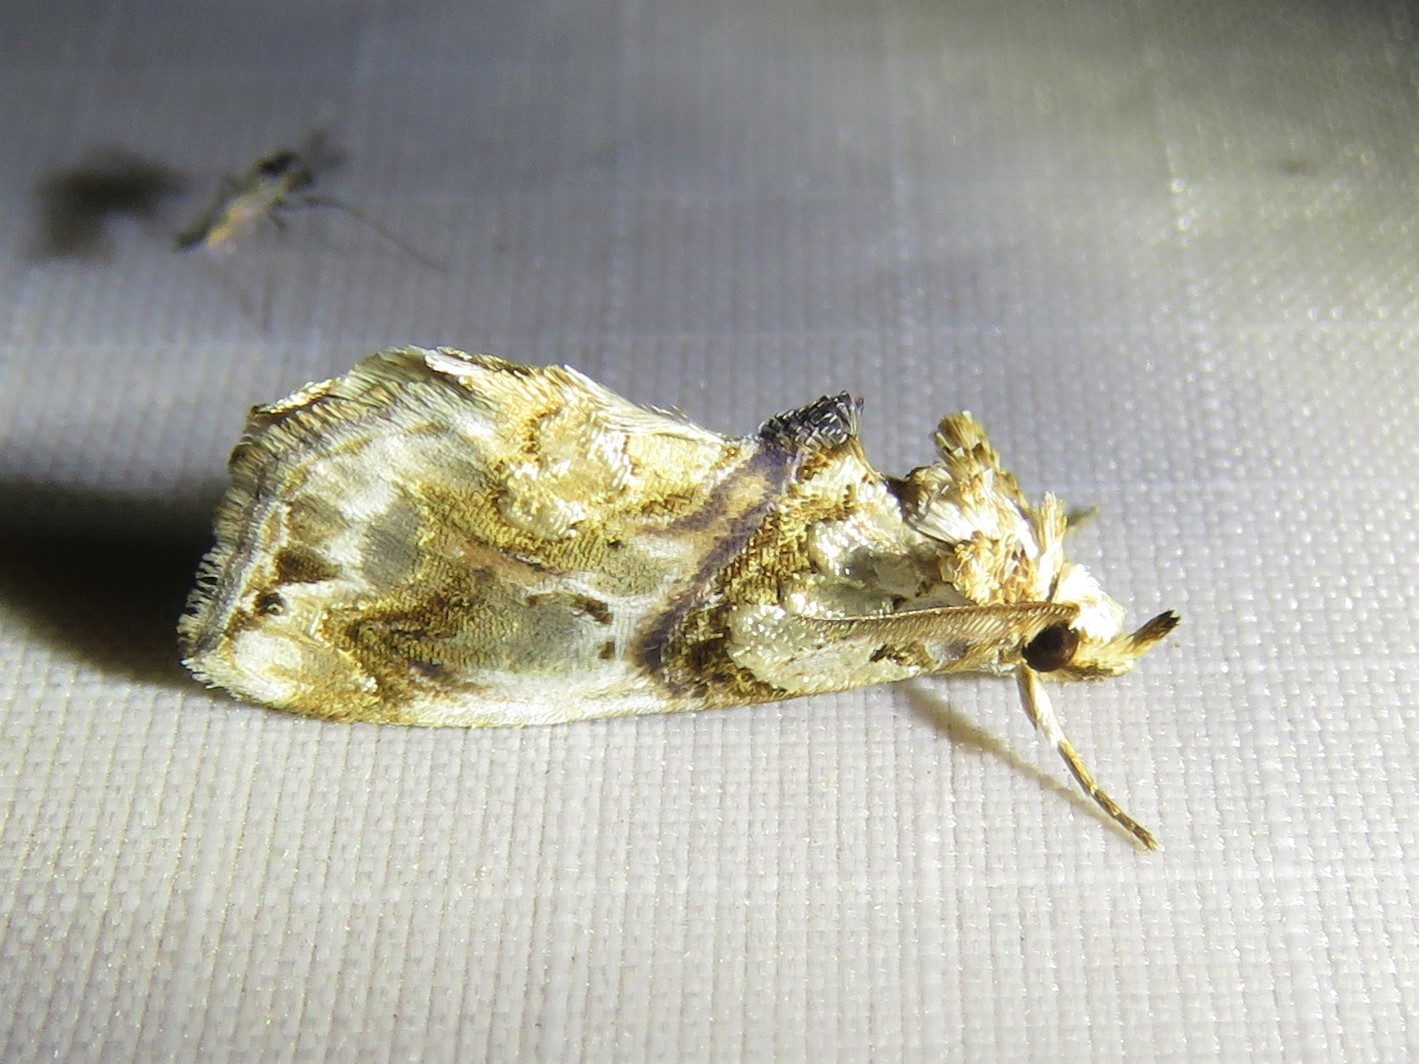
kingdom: Animalia
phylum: Arthropoda
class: Insecta
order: Lepidoptera
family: Erebidae
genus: Plusiodonta
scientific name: Plusiodonta compressipalpis
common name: Moonseed moth
